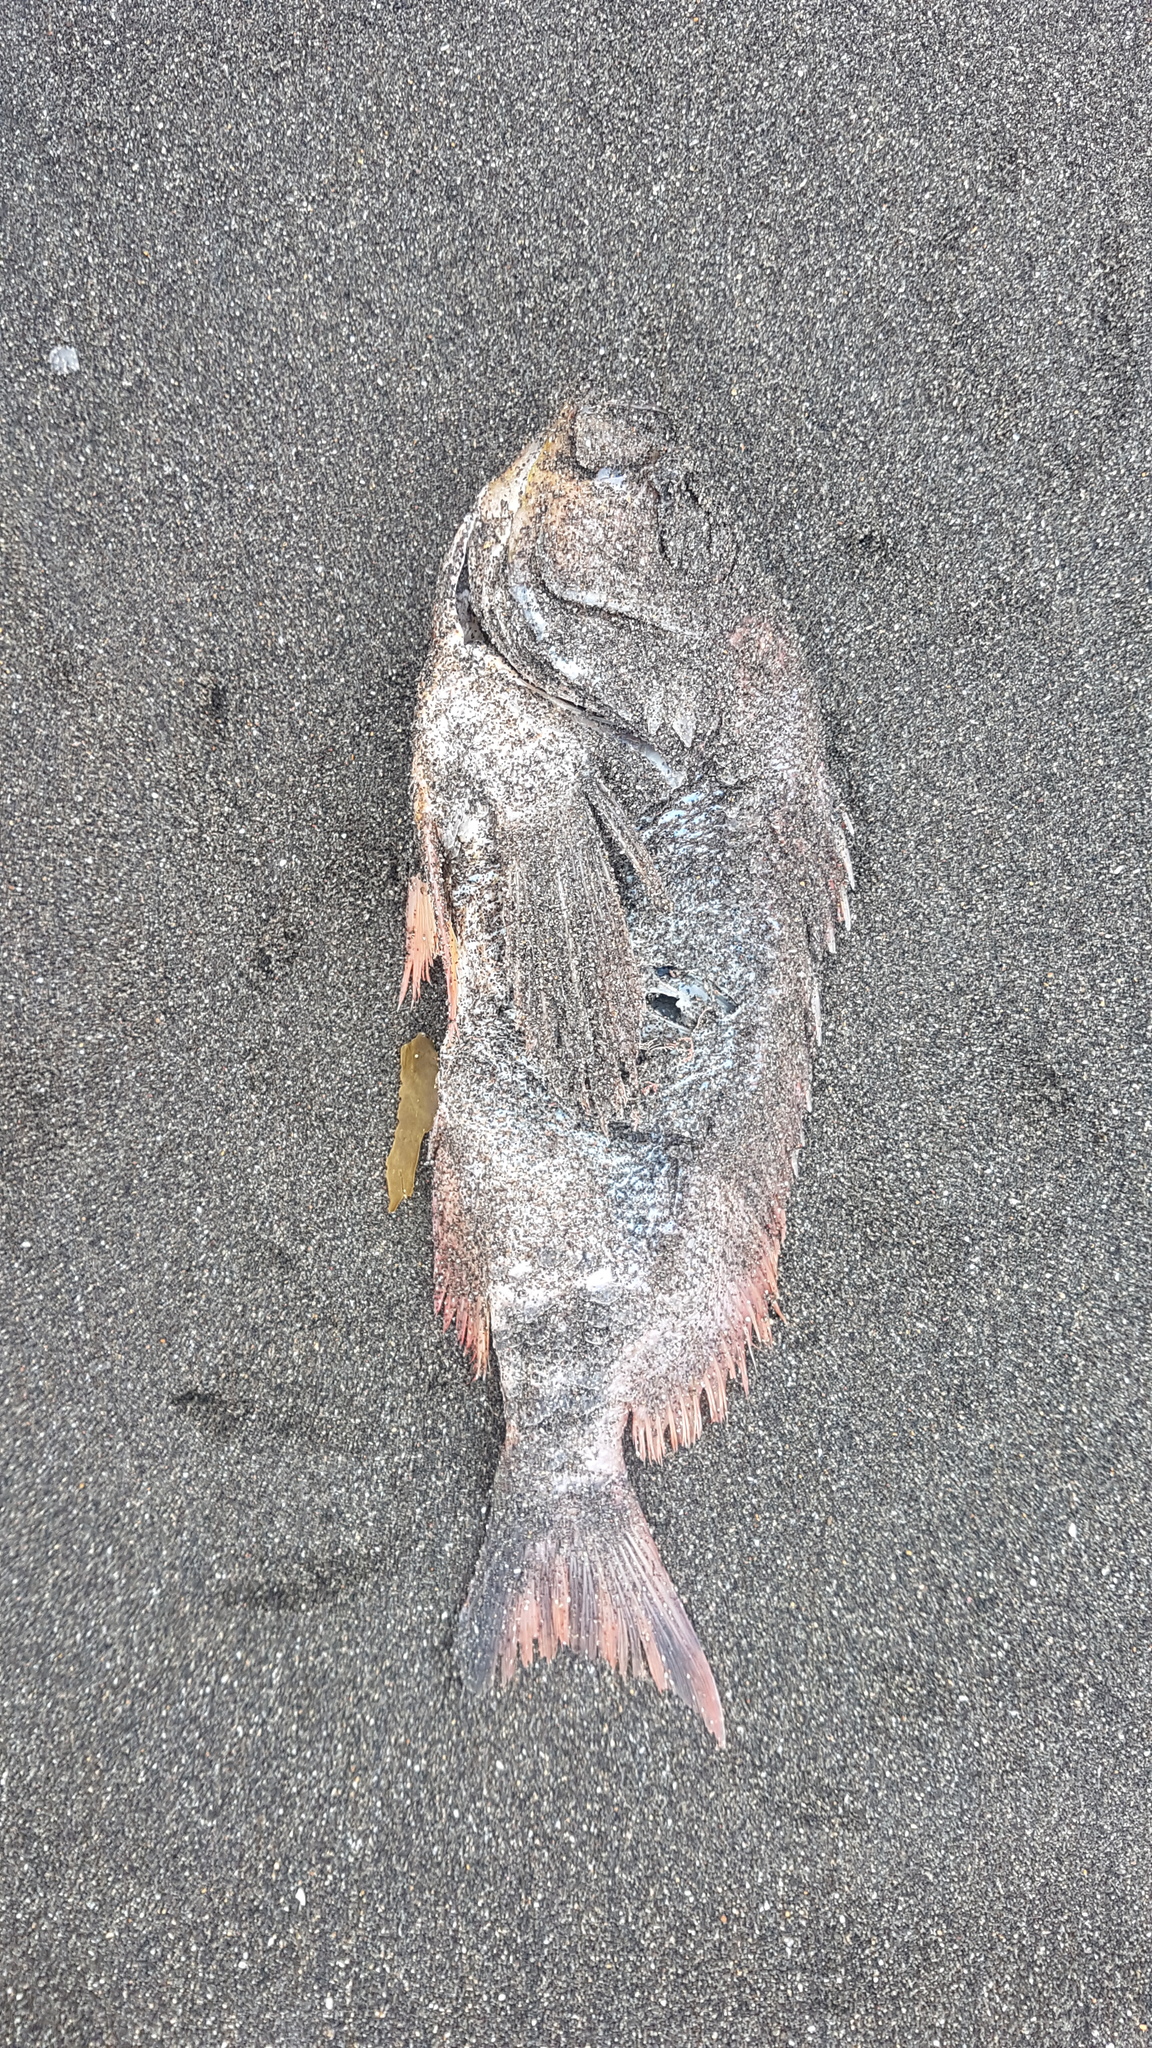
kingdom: Animalia
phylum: Chordata
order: Perciformes
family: Serranidae
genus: Caprodon
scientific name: Caprodon longimanus
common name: Pink maomao
